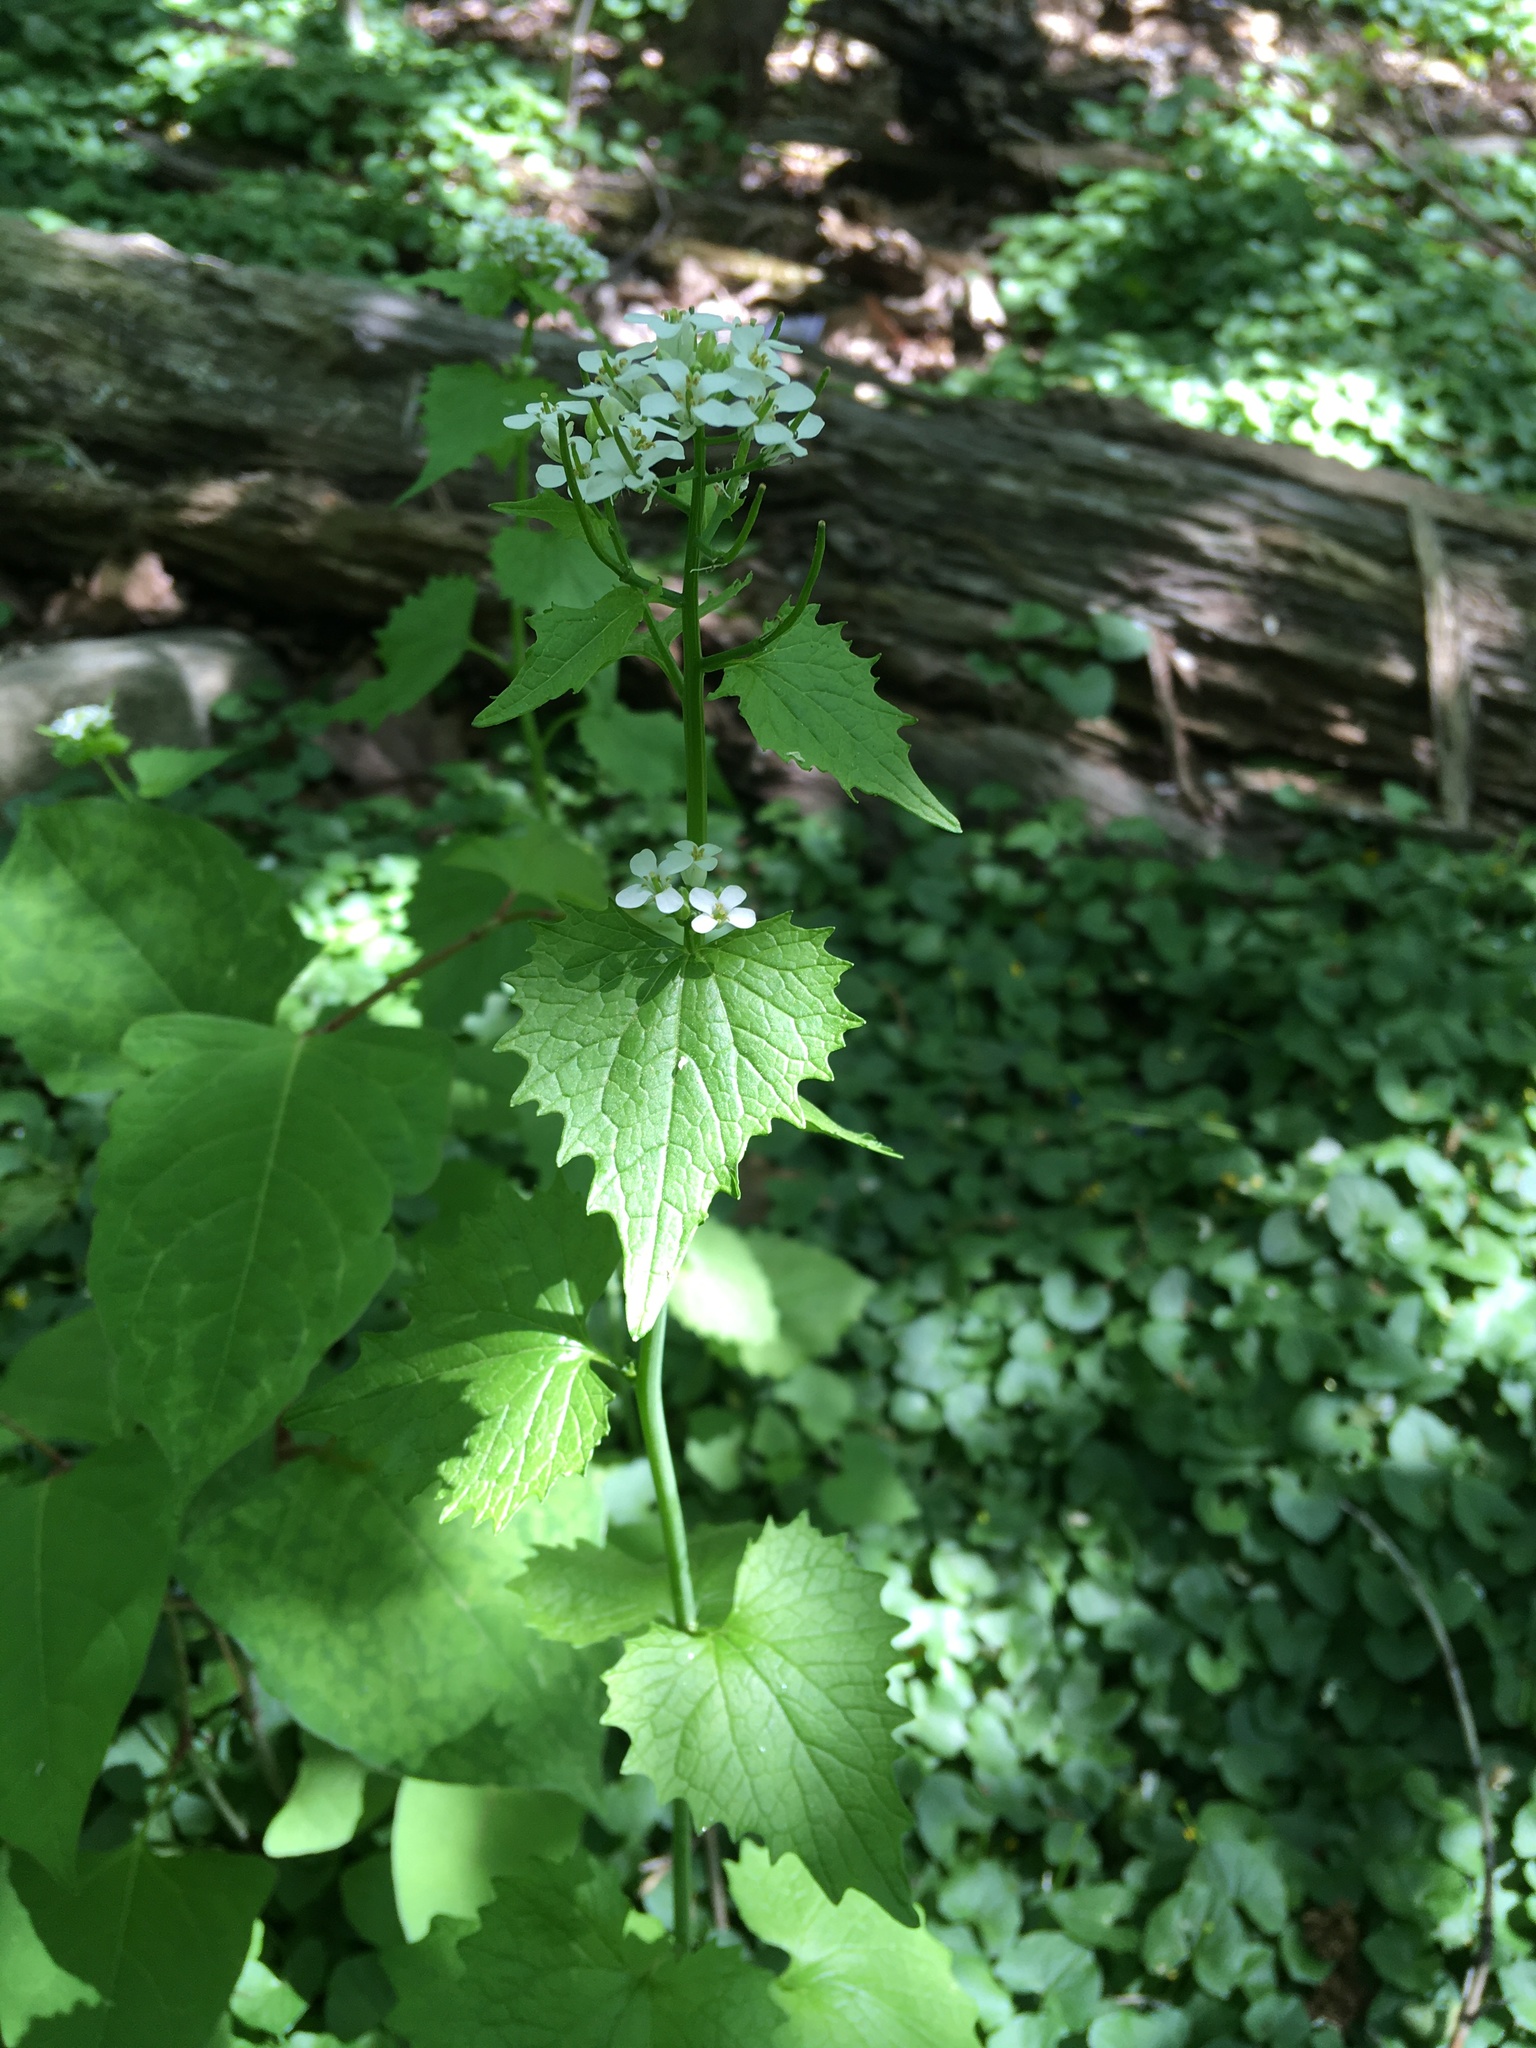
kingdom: Plantae
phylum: Tracheophyta
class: Magnoliopsida
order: Brassicales
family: Brassicaceae
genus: Alliaria
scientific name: Alliaria petiolata
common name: Garlic mustard
